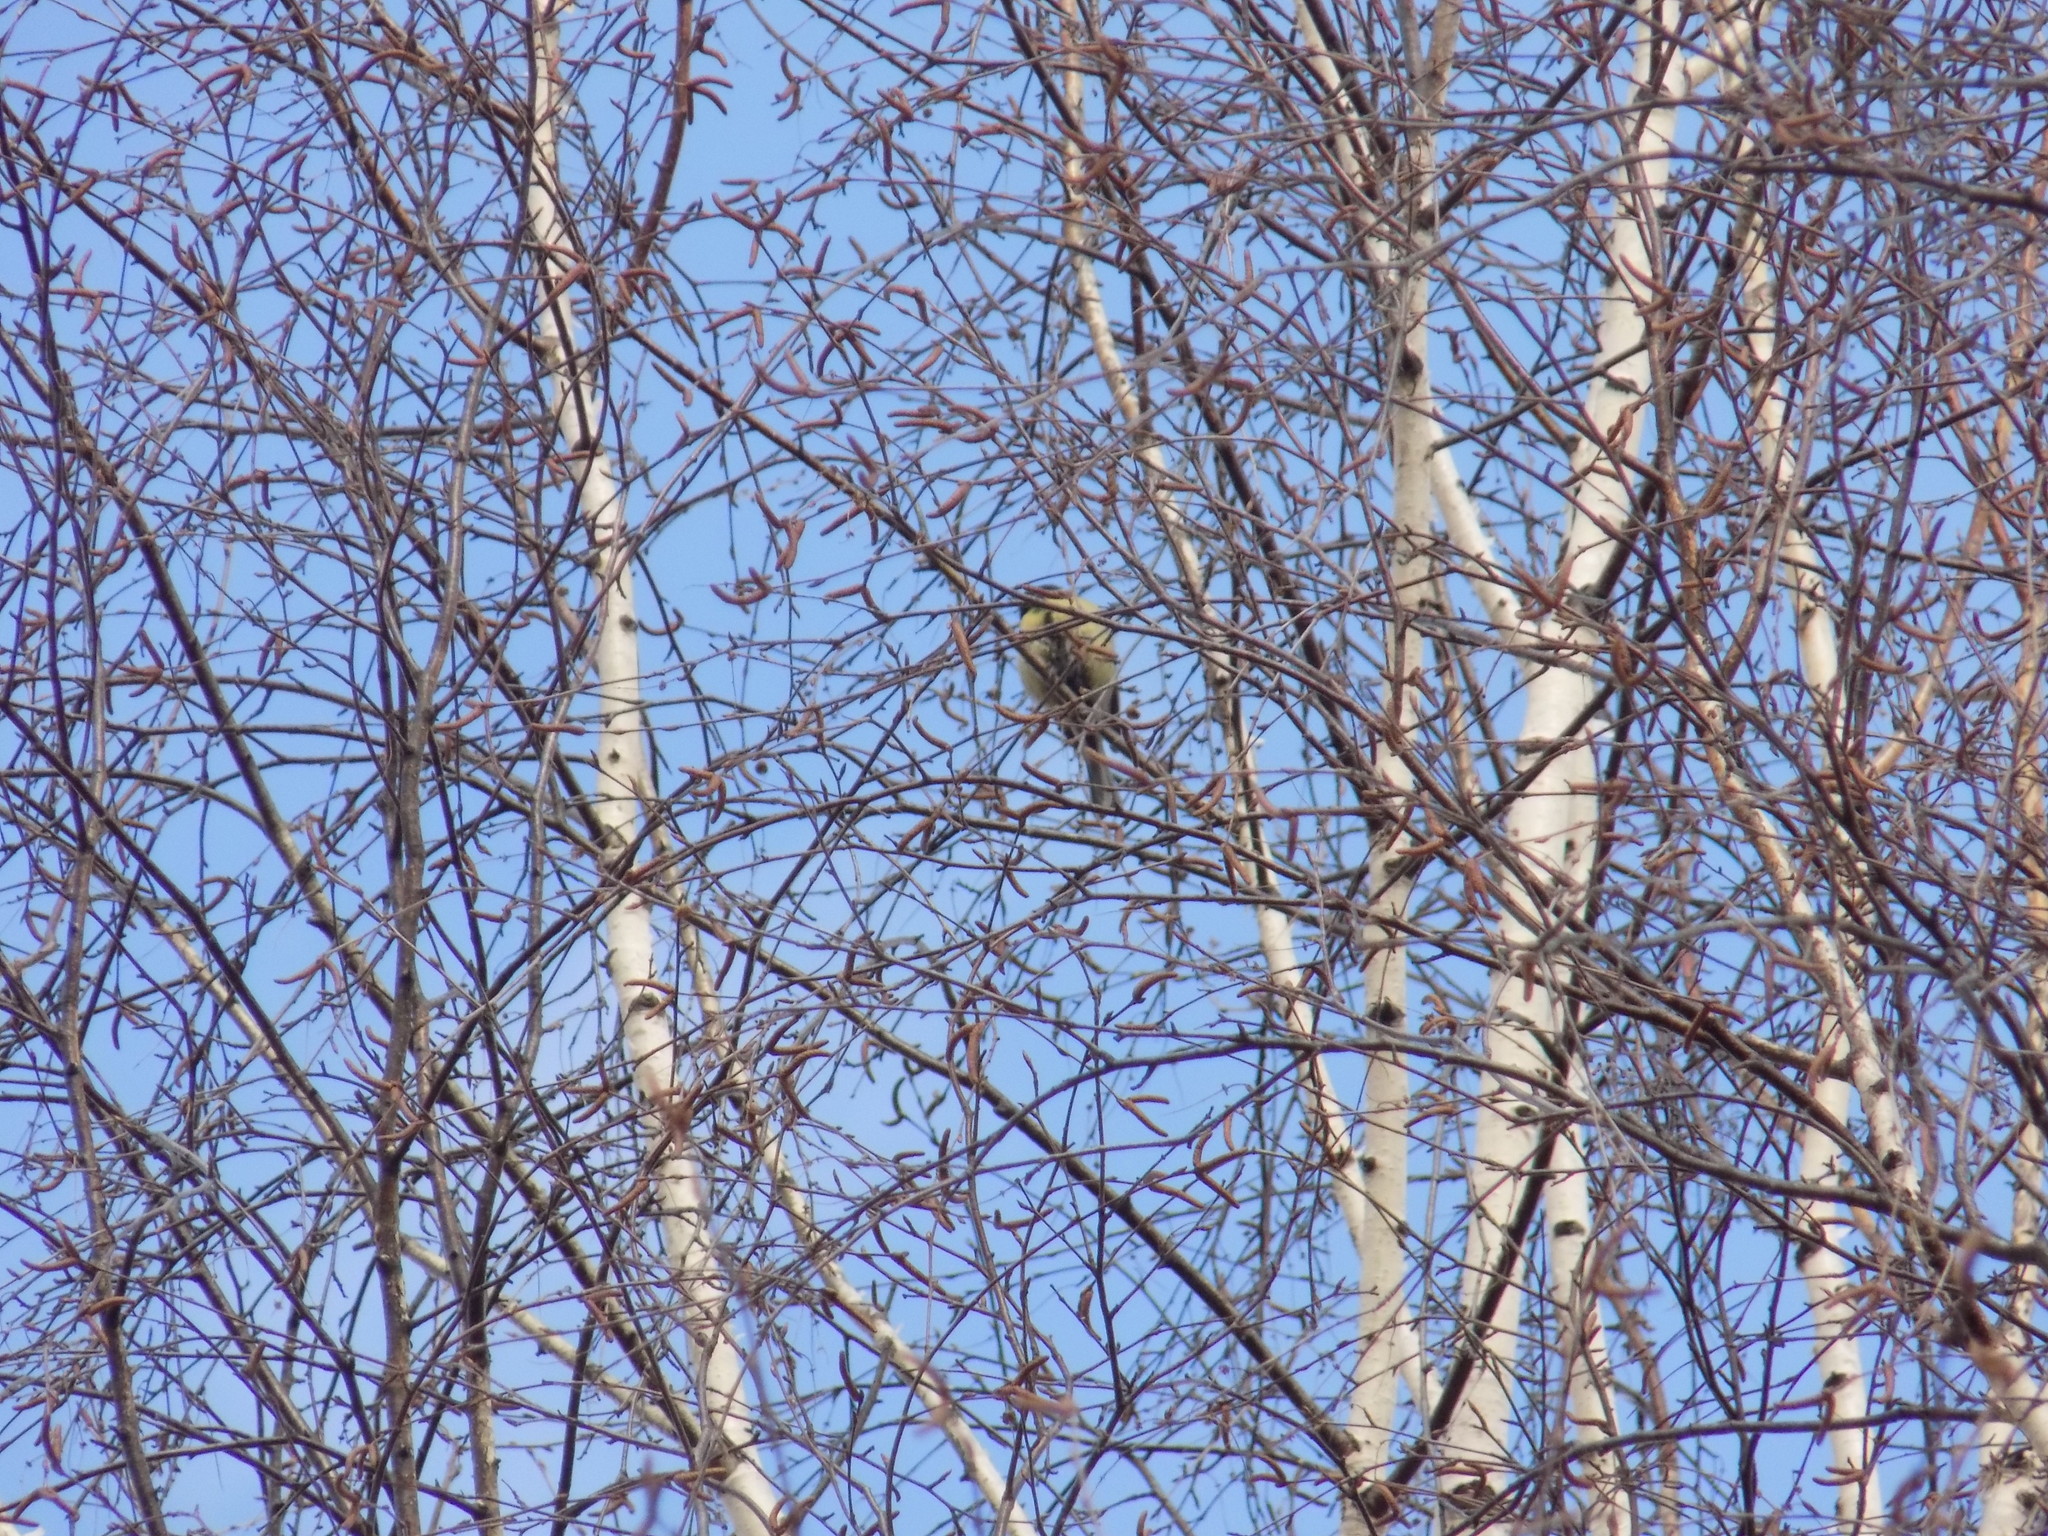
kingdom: Animalia
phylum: Chordata
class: Aves
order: Passeriformes
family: Paridae
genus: Parus
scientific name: Parus major
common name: Great tit
